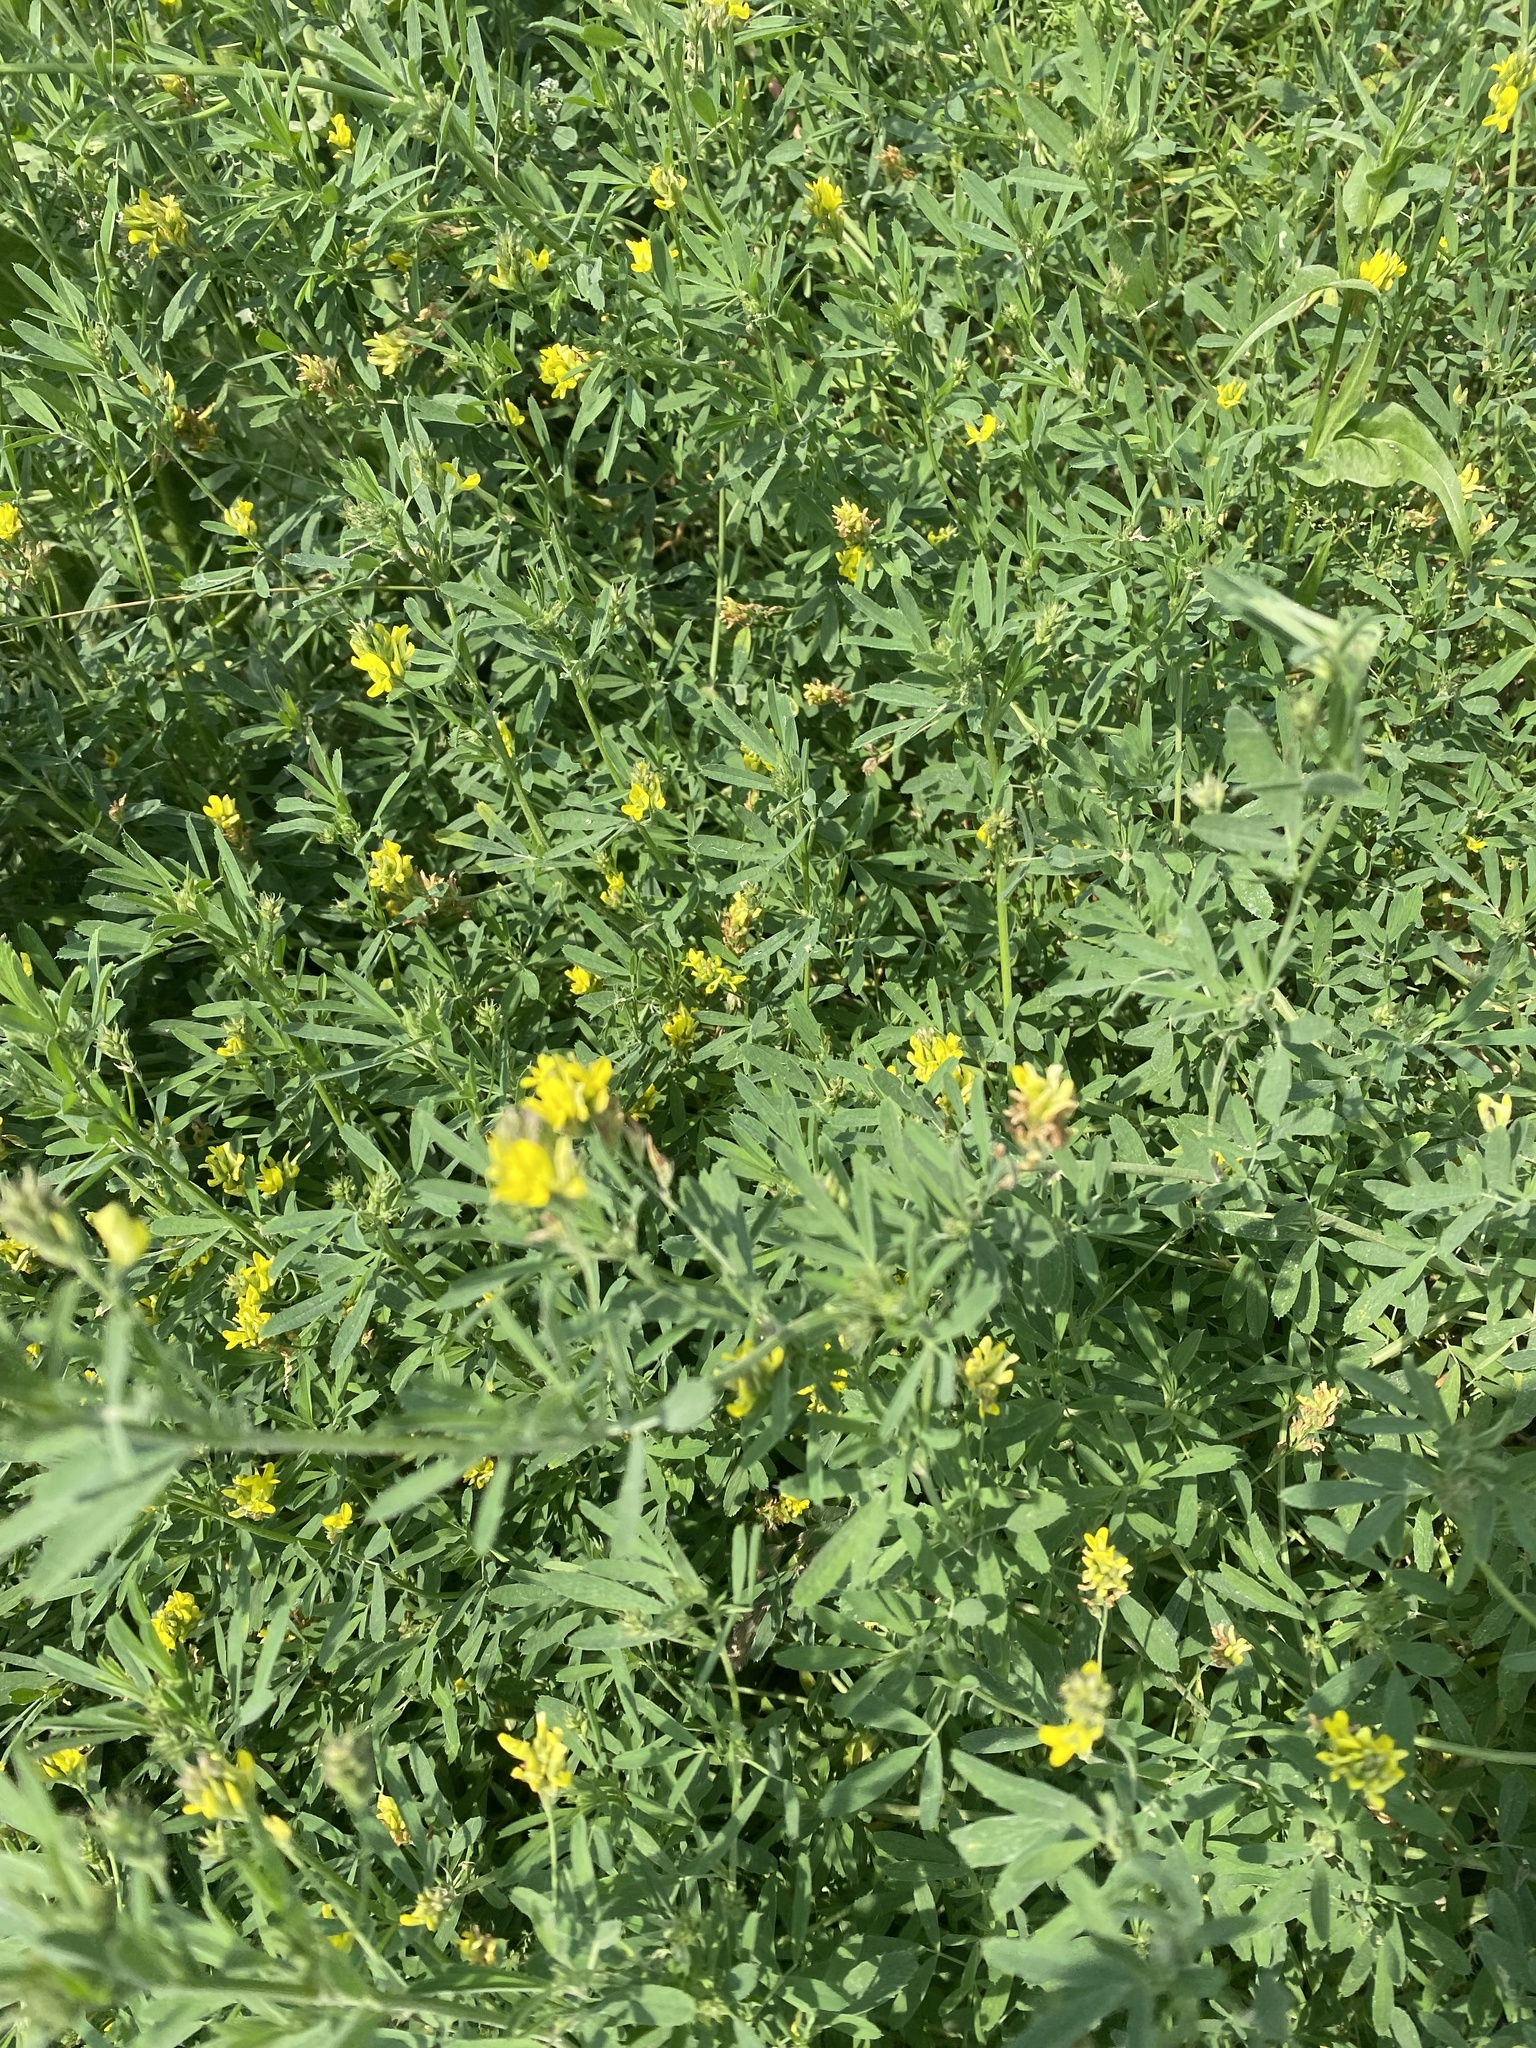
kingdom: Plantae
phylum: Tracheophyta
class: Magnoliopsida
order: Fabales
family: Fabaceae
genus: Medicago
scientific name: Medicago falcata
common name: Sickle medick
